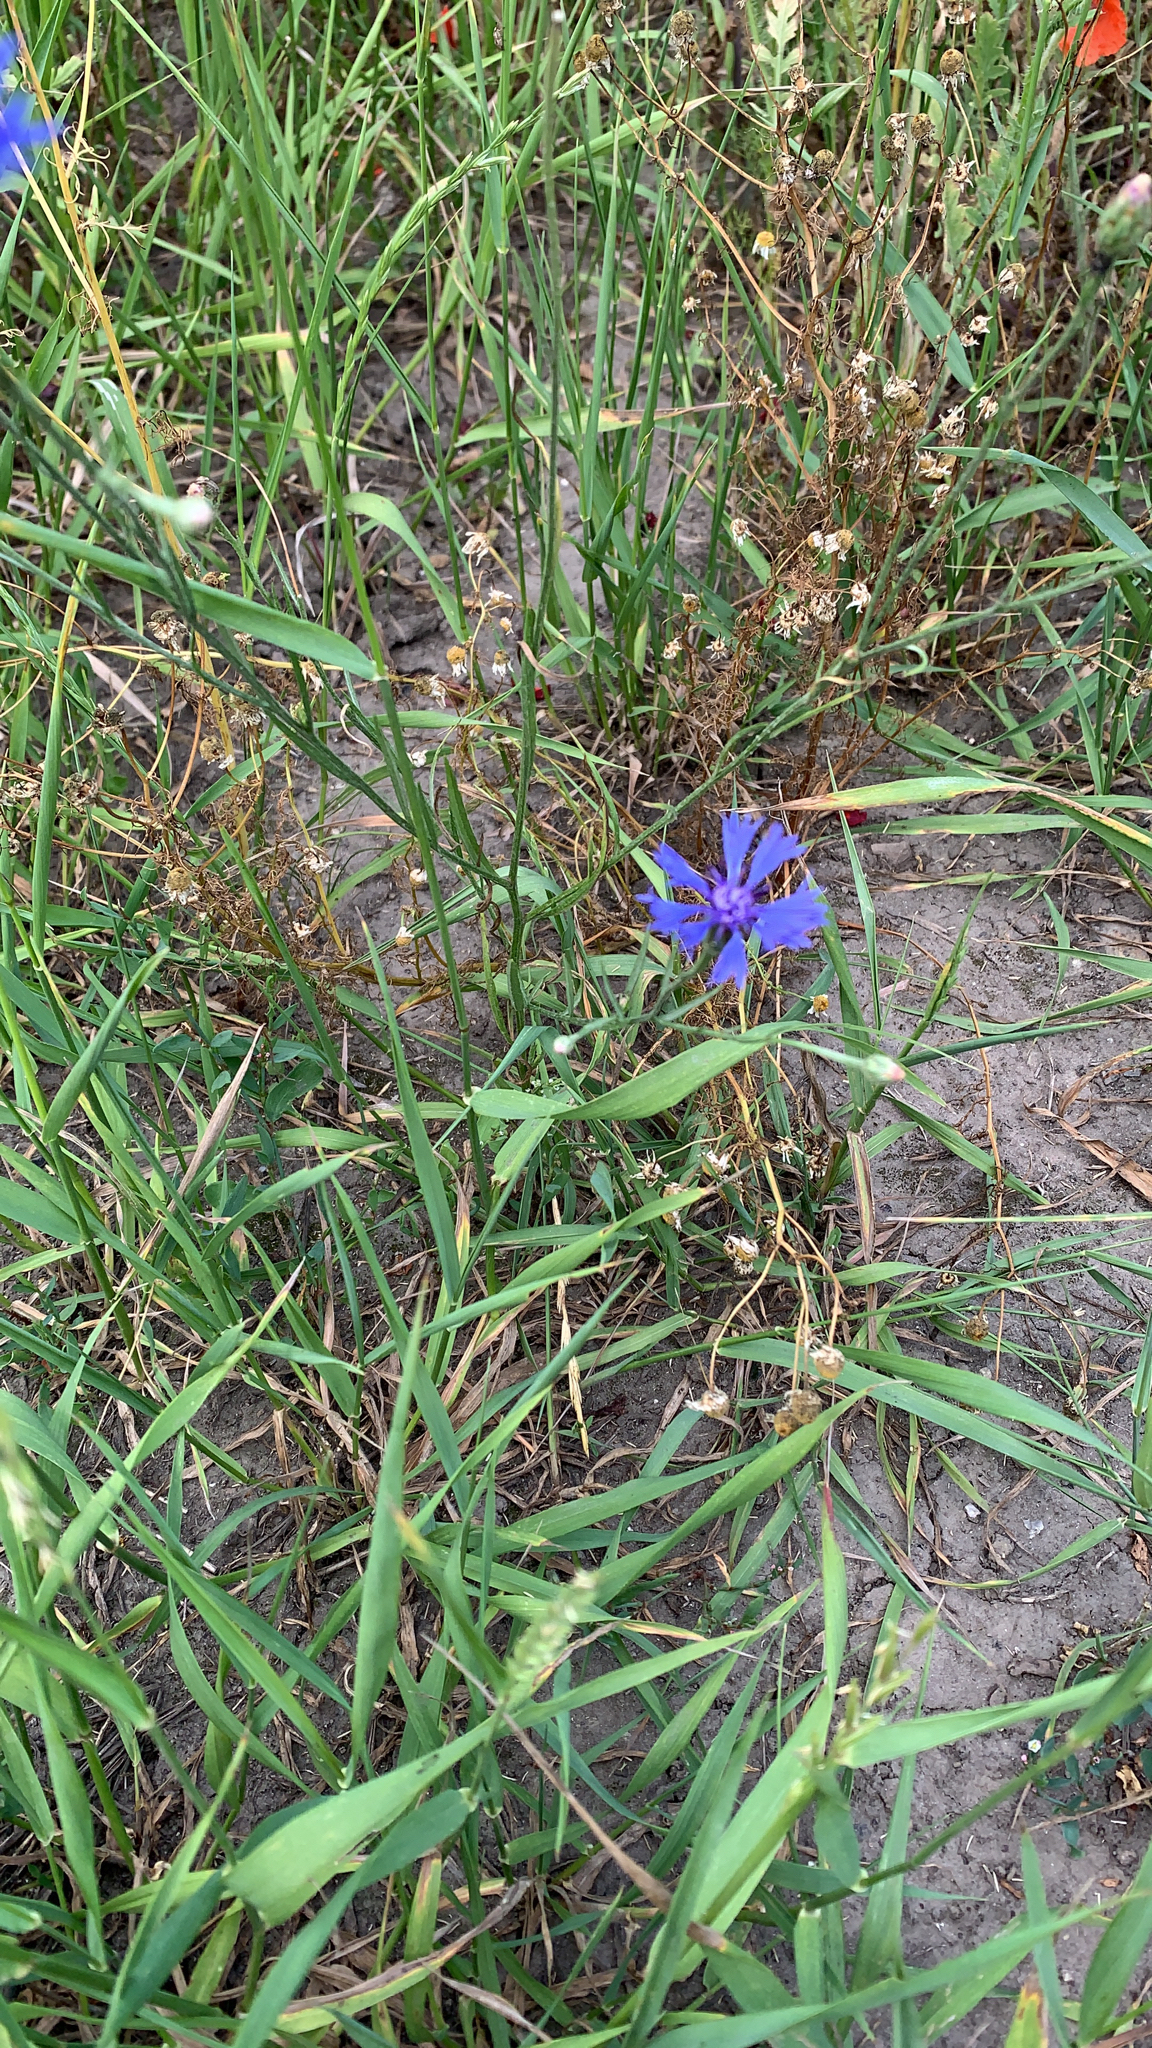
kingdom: Plantae
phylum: Tracheophyta
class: Magnoliopsida
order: Asterales
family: Asteraceae
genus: Centaurea
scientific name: Centaurea cyanus
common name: Cornflower
